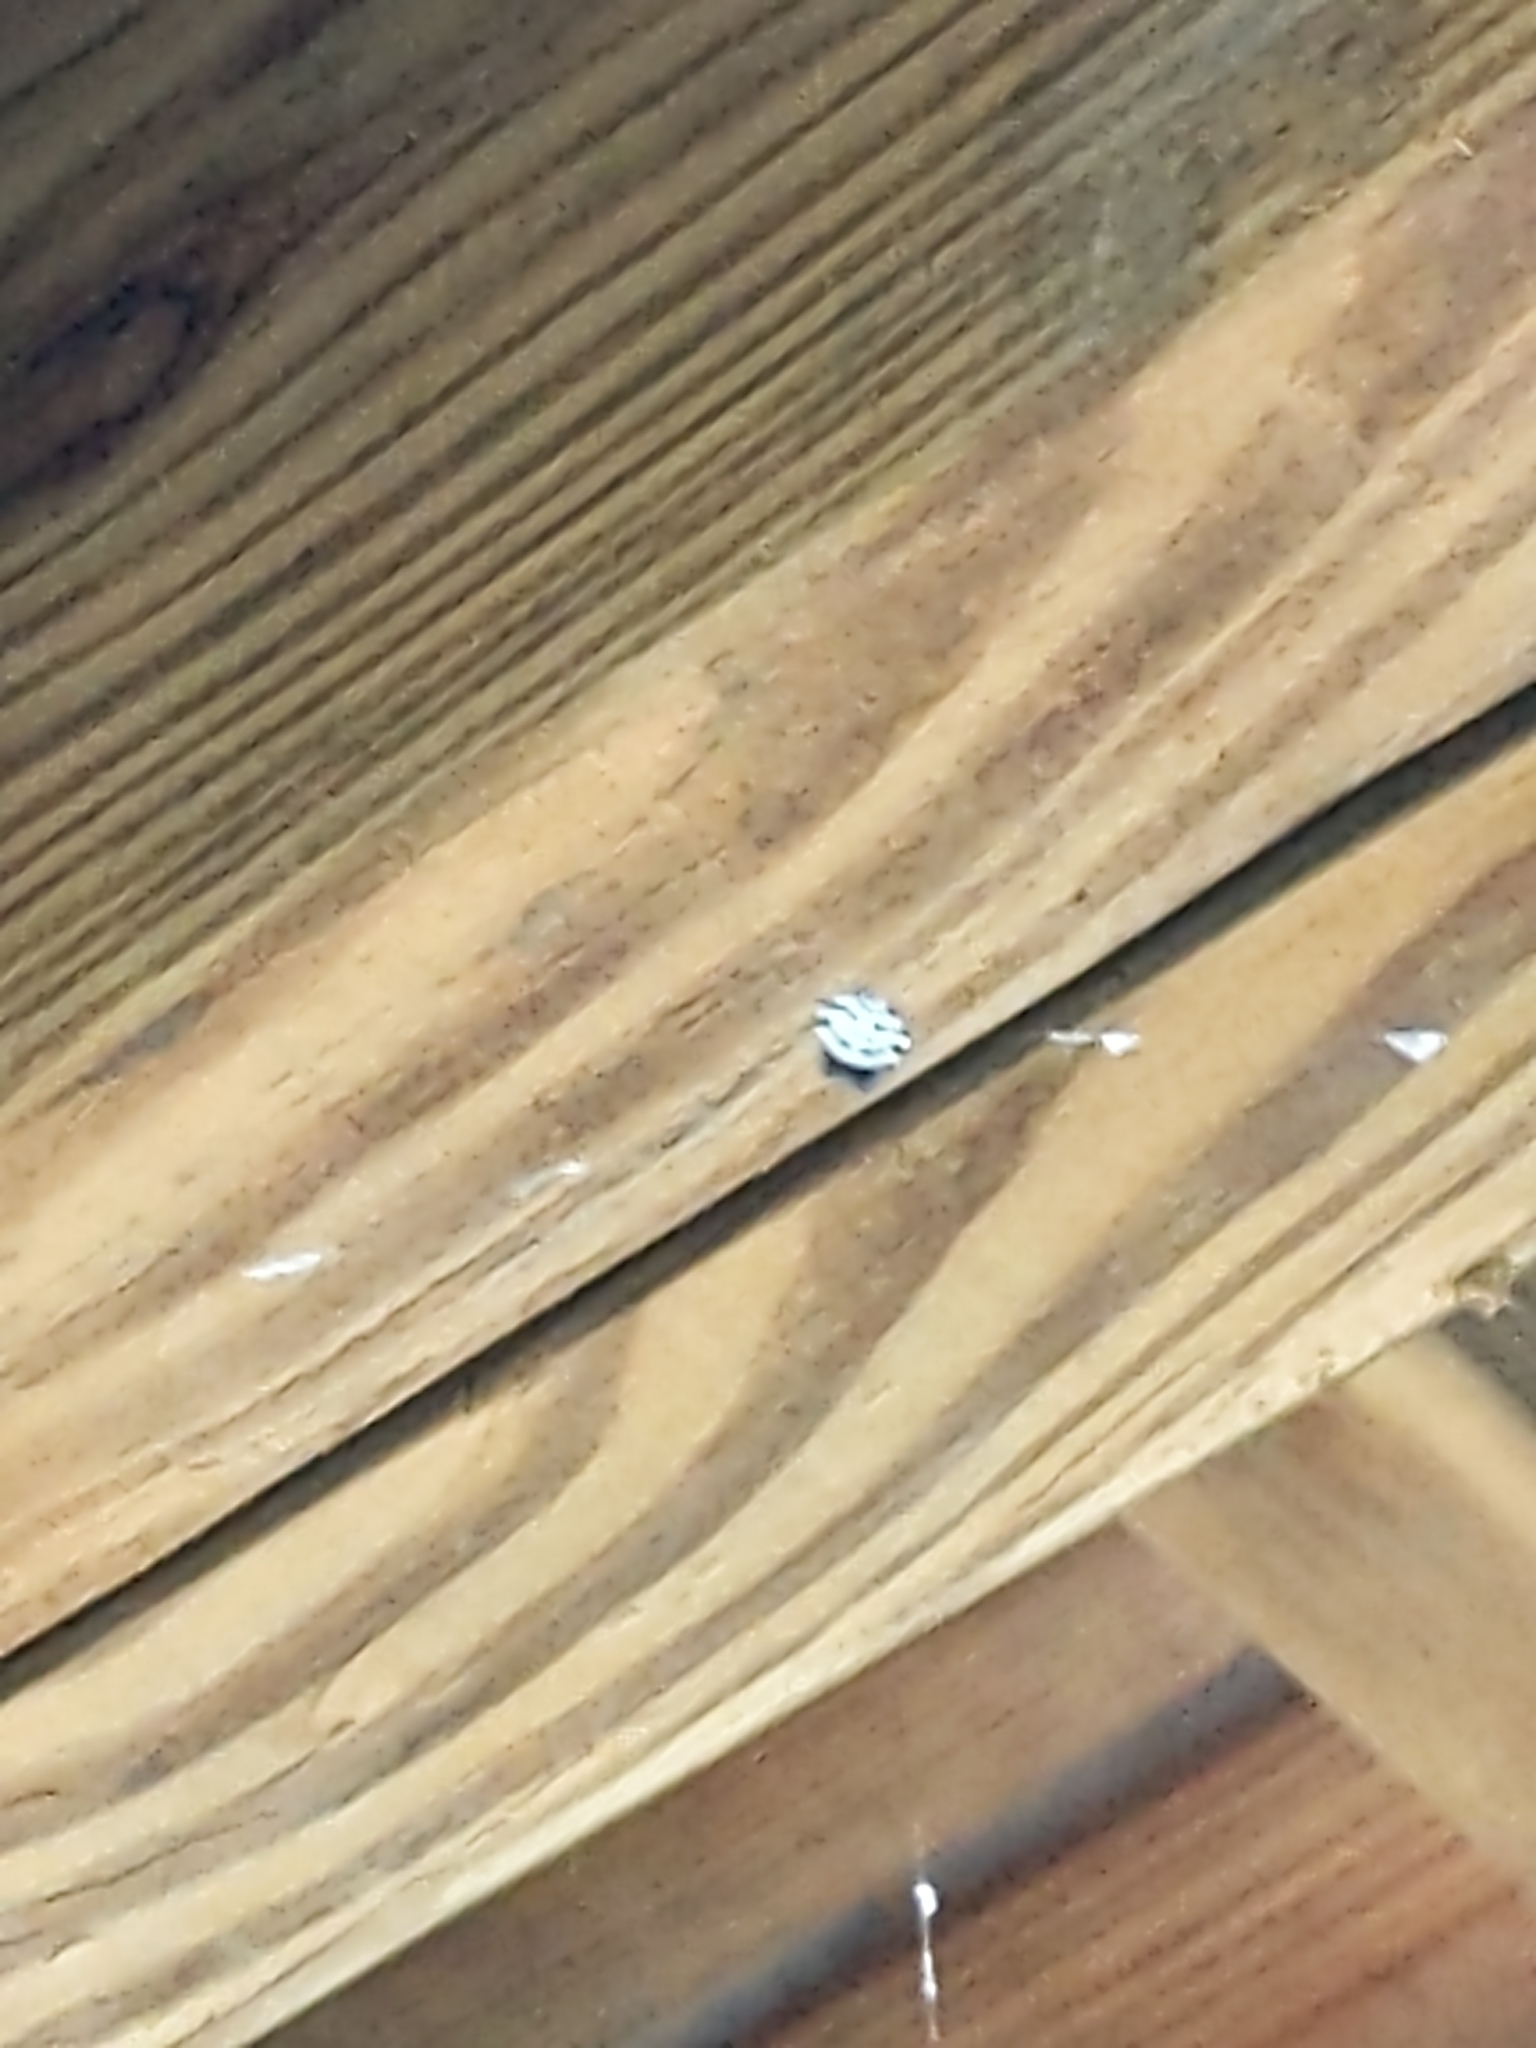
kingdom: Animalia
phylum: Arthropoda
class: Arachnida
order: Araneae
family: Araneidae
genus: Gasteracantha
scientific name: Gasteracantha cancriformis
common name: Orb weavers
